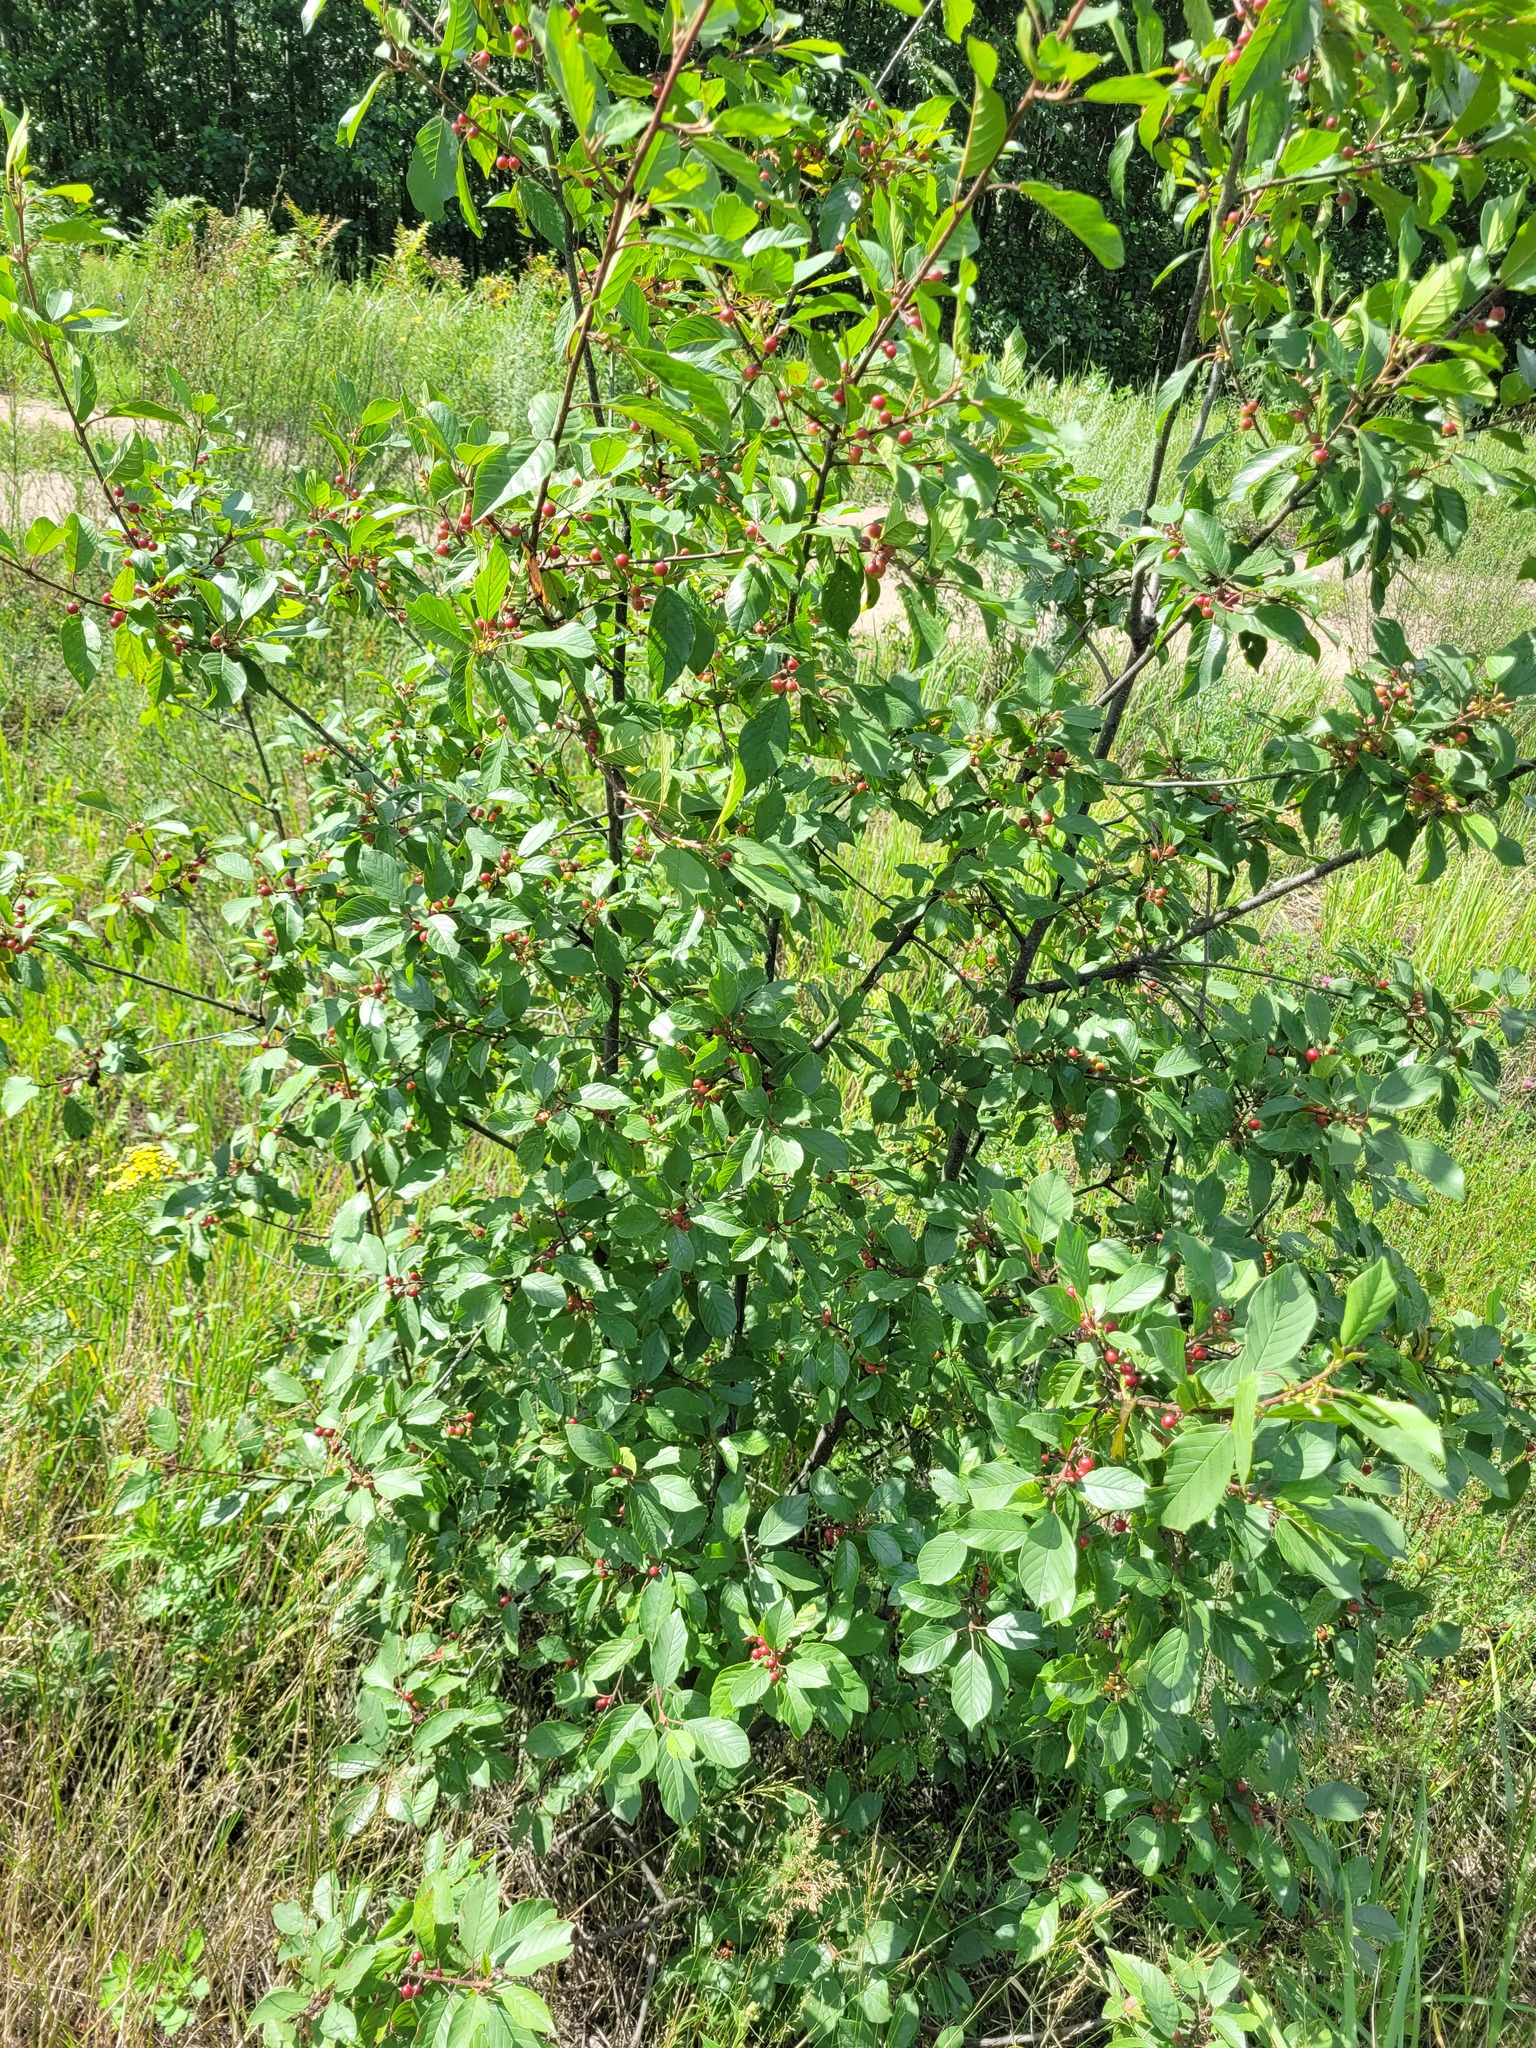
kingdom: Plantae
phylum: Tracheophyta
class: Magnoliopsida
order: Rosales
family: Rhamnaceae
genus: Frangula
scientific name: Frangula alnus
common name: Alder buckthorn
